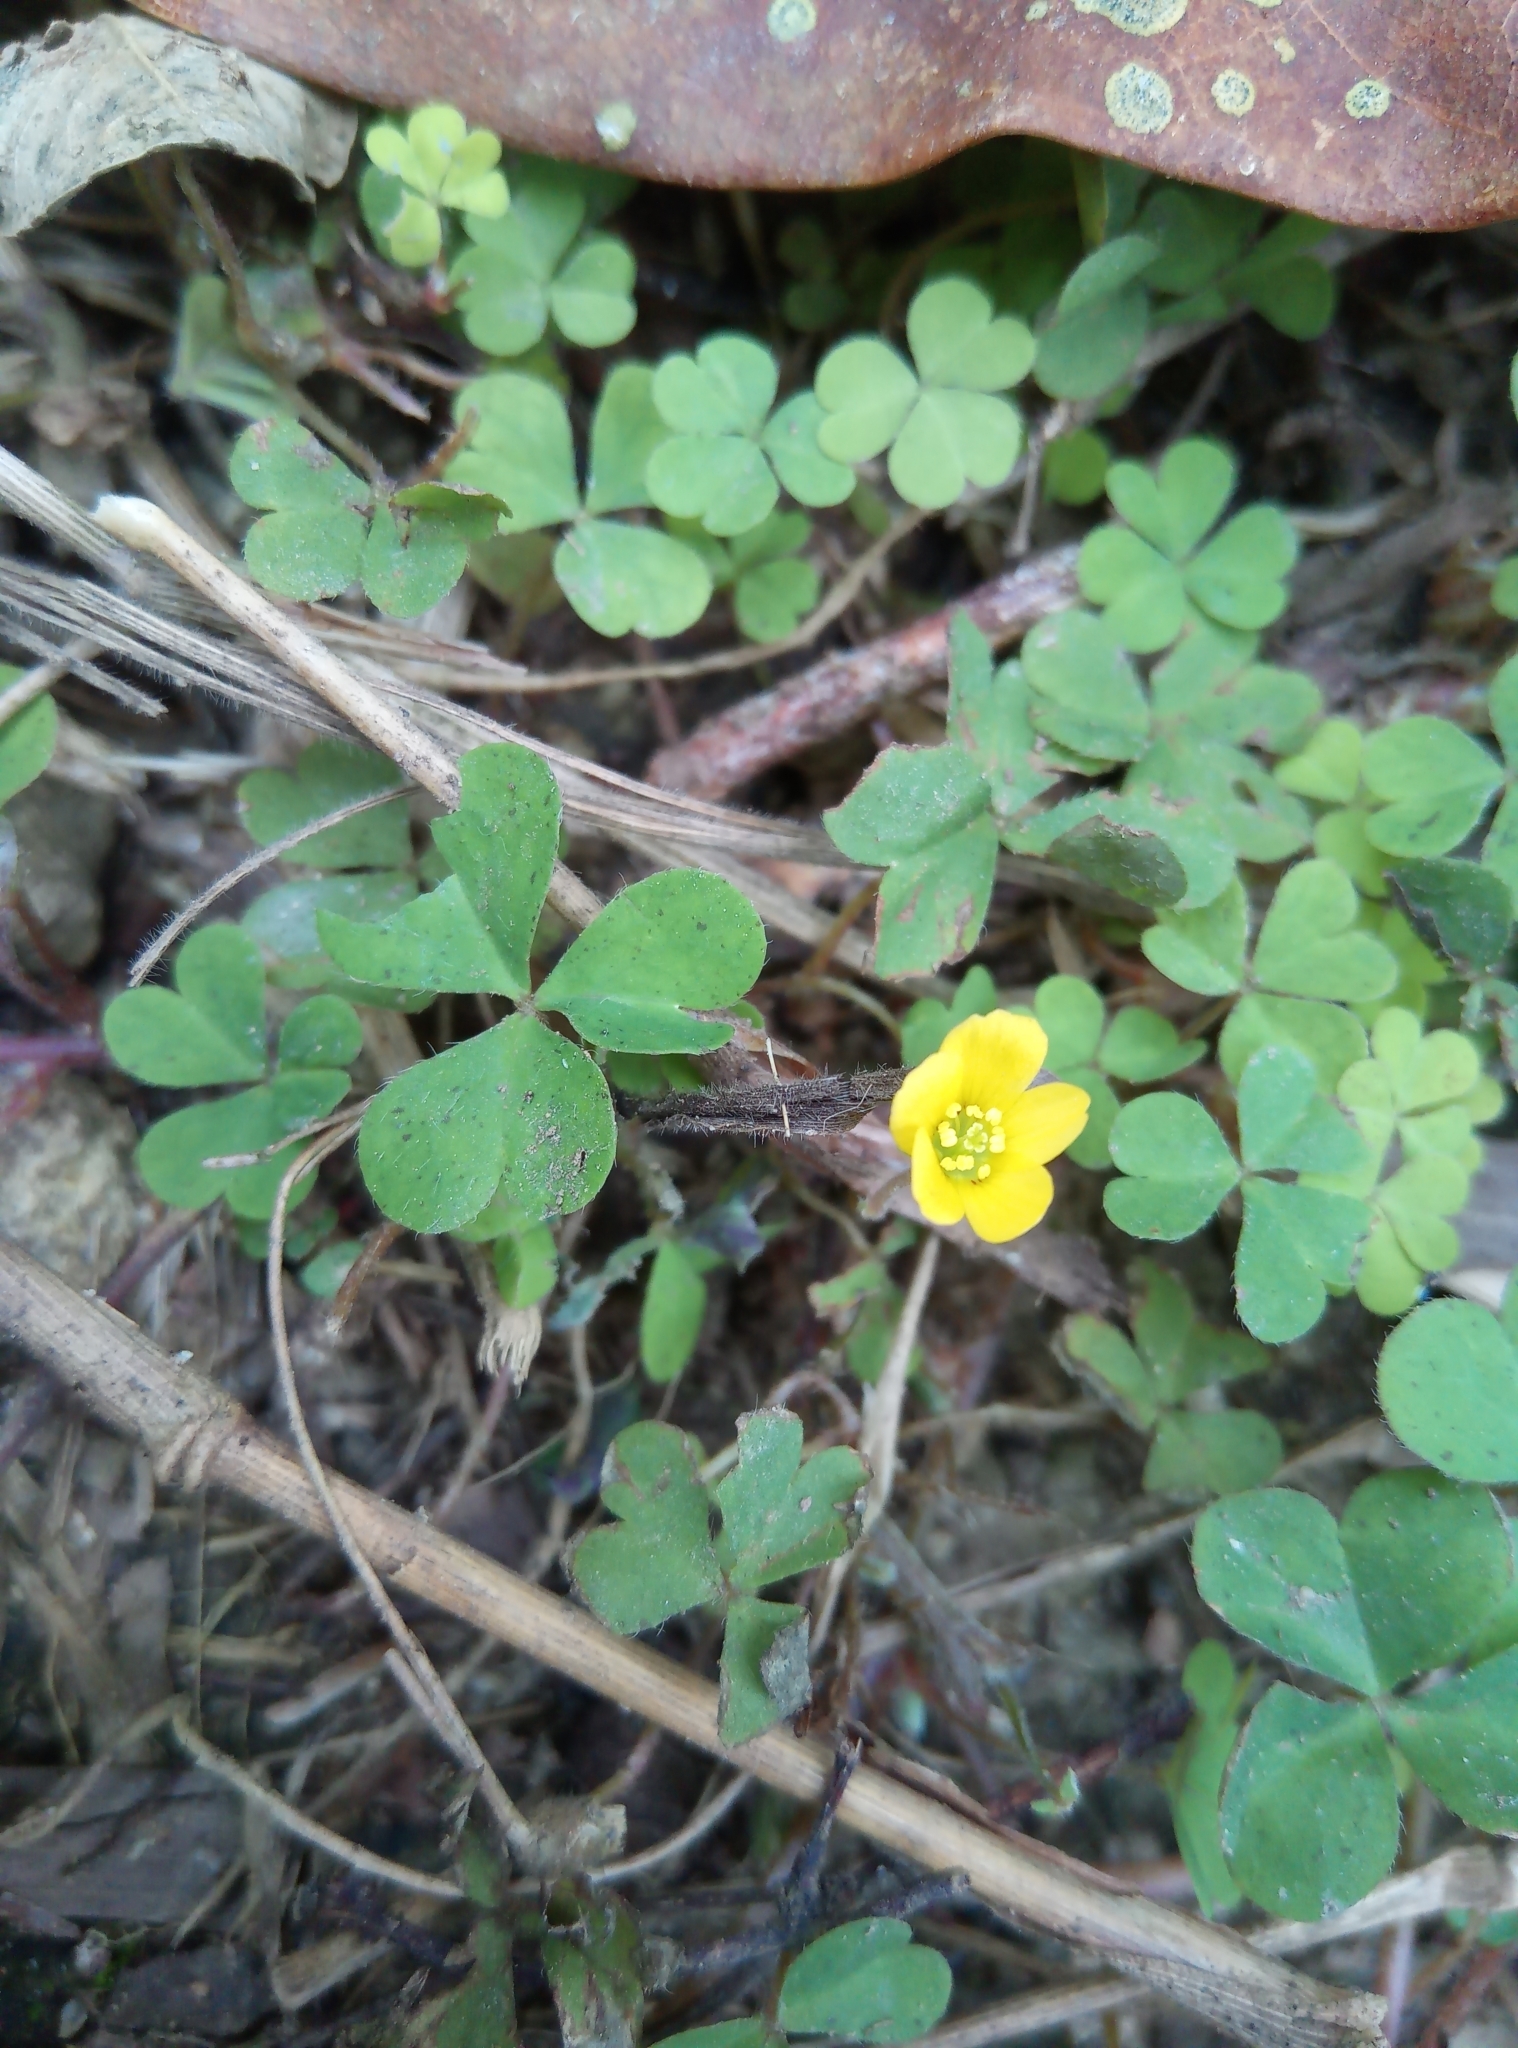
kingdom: Plantae
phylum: Tracheophyta
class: Magnoliopsida
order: Oxalidales
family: Oxalidaceae
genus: Oxalis
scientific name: Oxalis corniculata
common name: Procumbent yellow-sorrel
